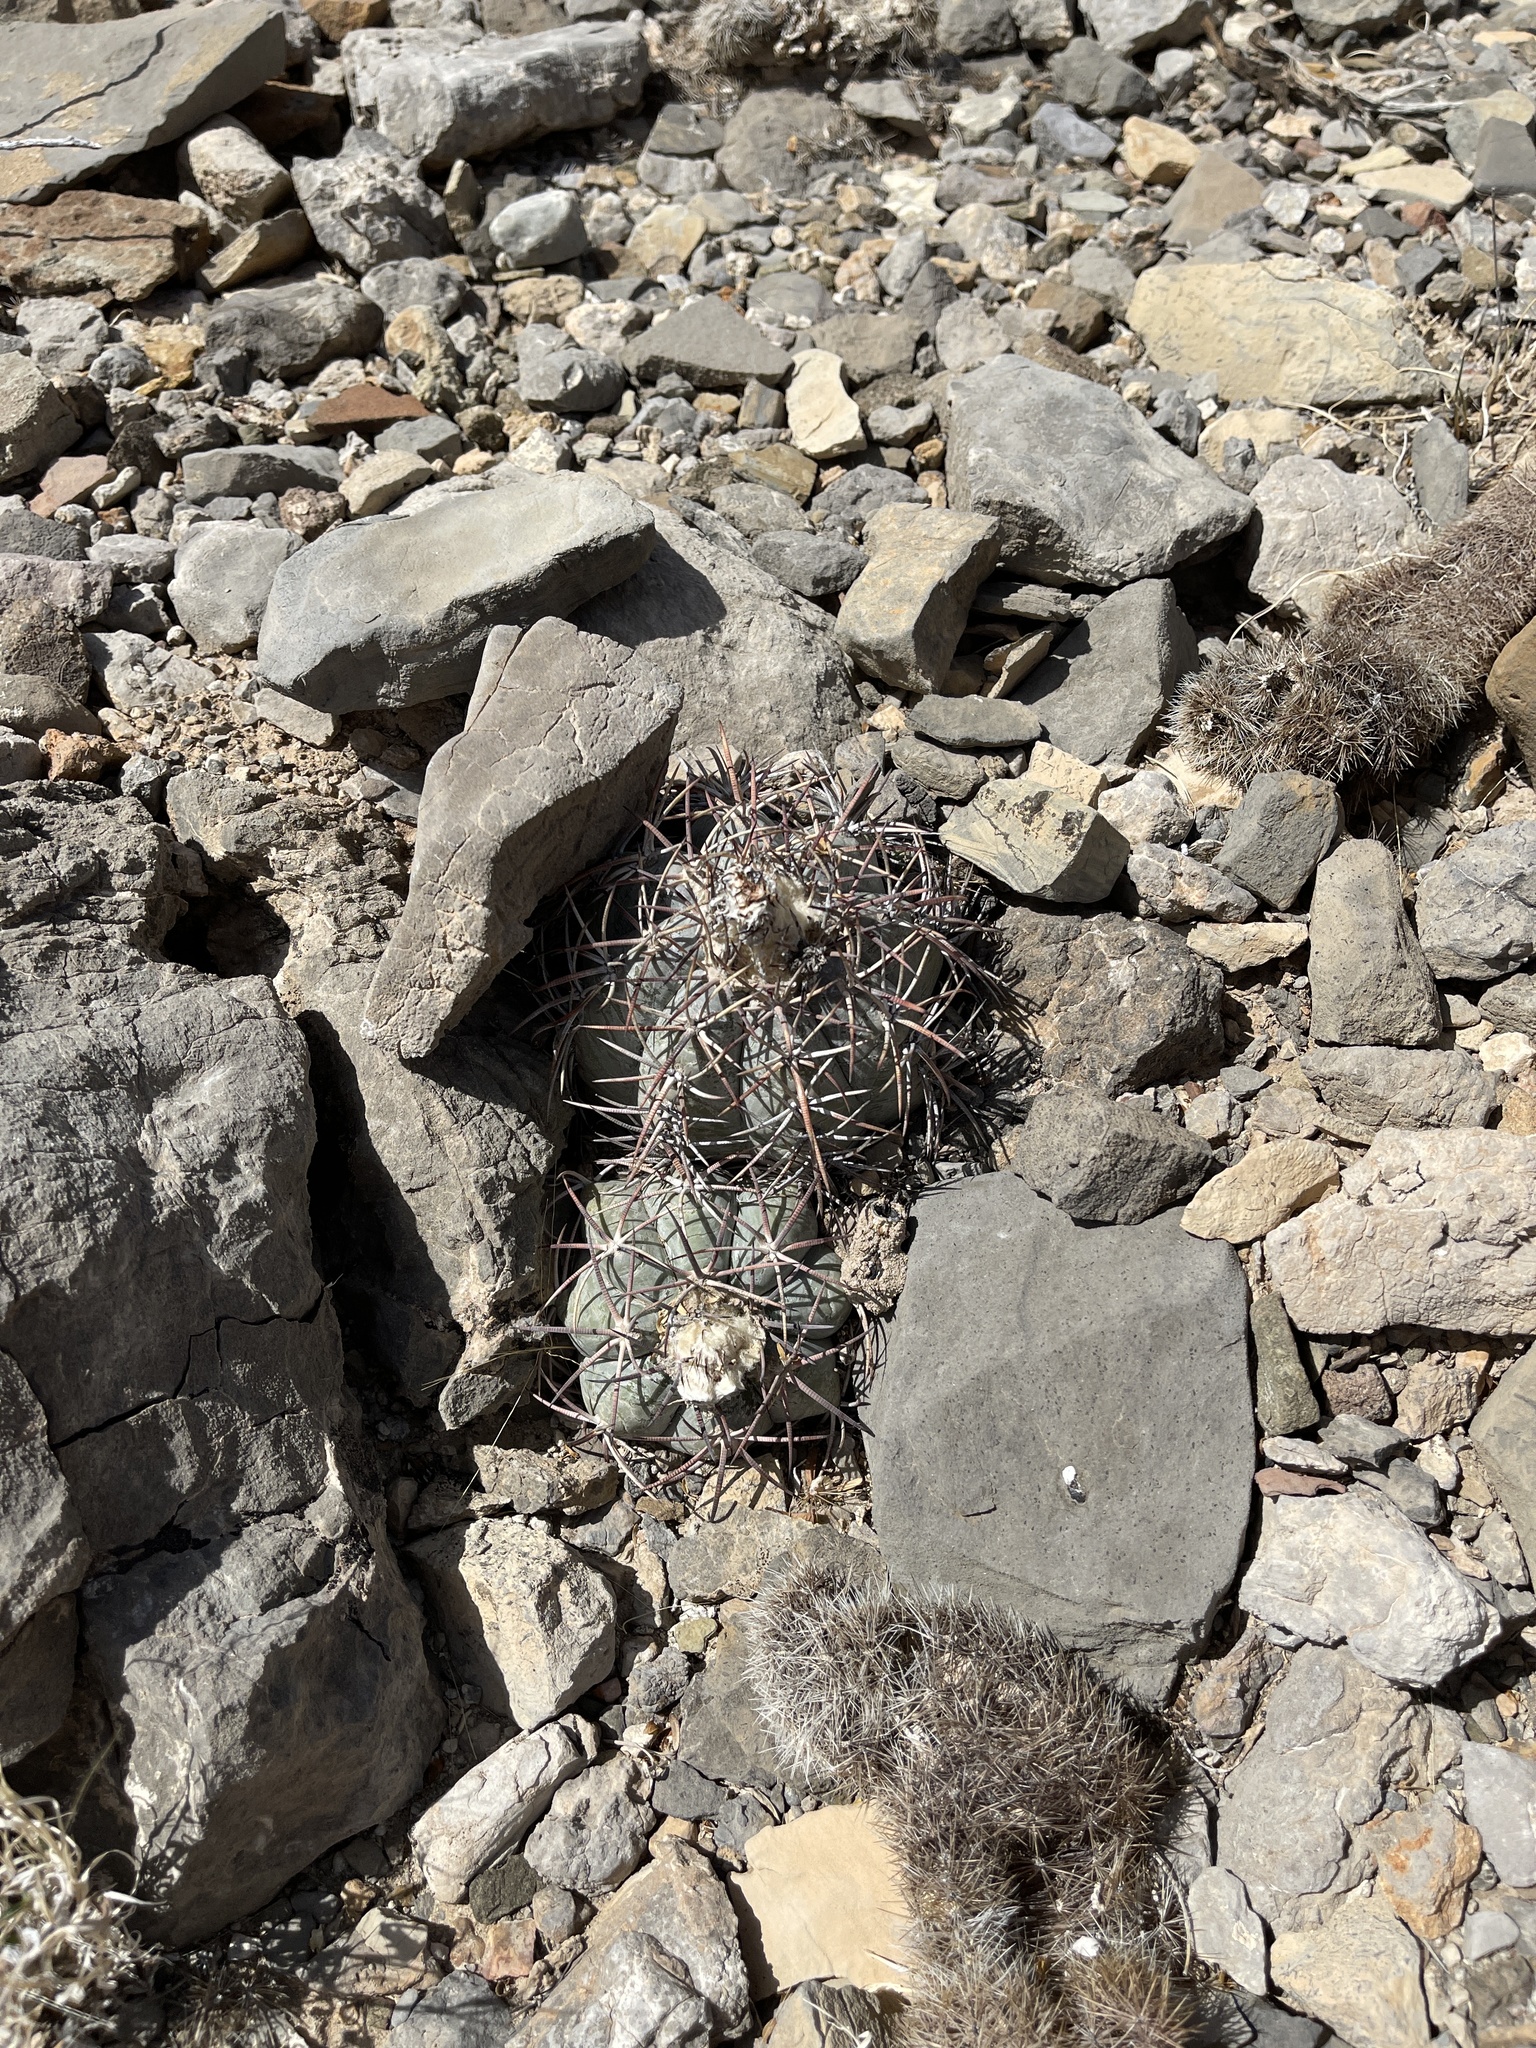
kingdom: Plantae
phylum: Tracheophyta
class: Magnoliopsida
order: Caryophyllales
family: Cactaceae
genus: Echinocactus
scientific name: Echinocactus horizonthalonius
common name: Devilshead
